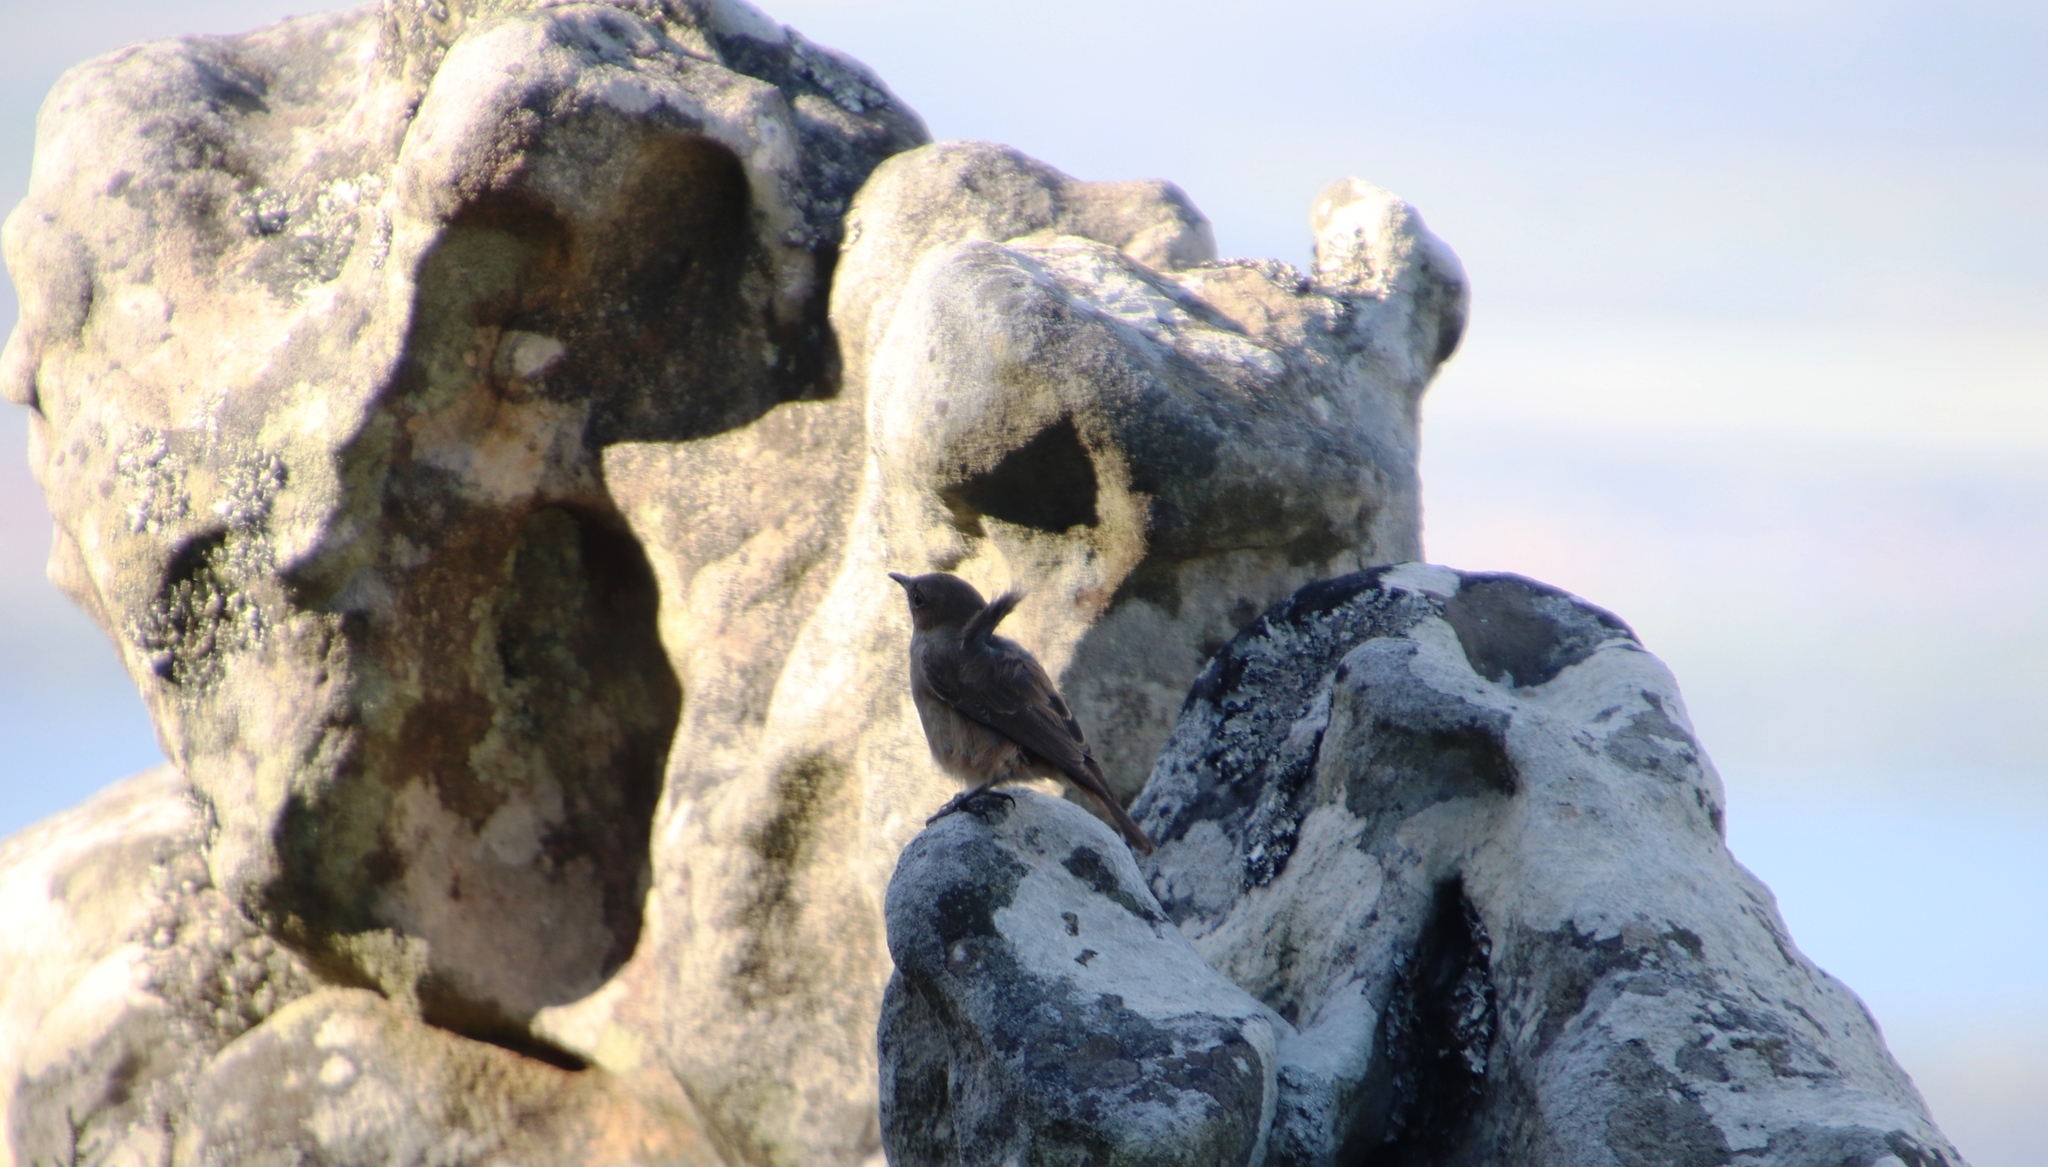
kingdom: Animalia
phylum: Chordata
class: Aves
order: Passeriformes
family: Muscicapidae
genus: Oenanthe
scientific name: Oenanthe familiaris
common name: Familiar chat
